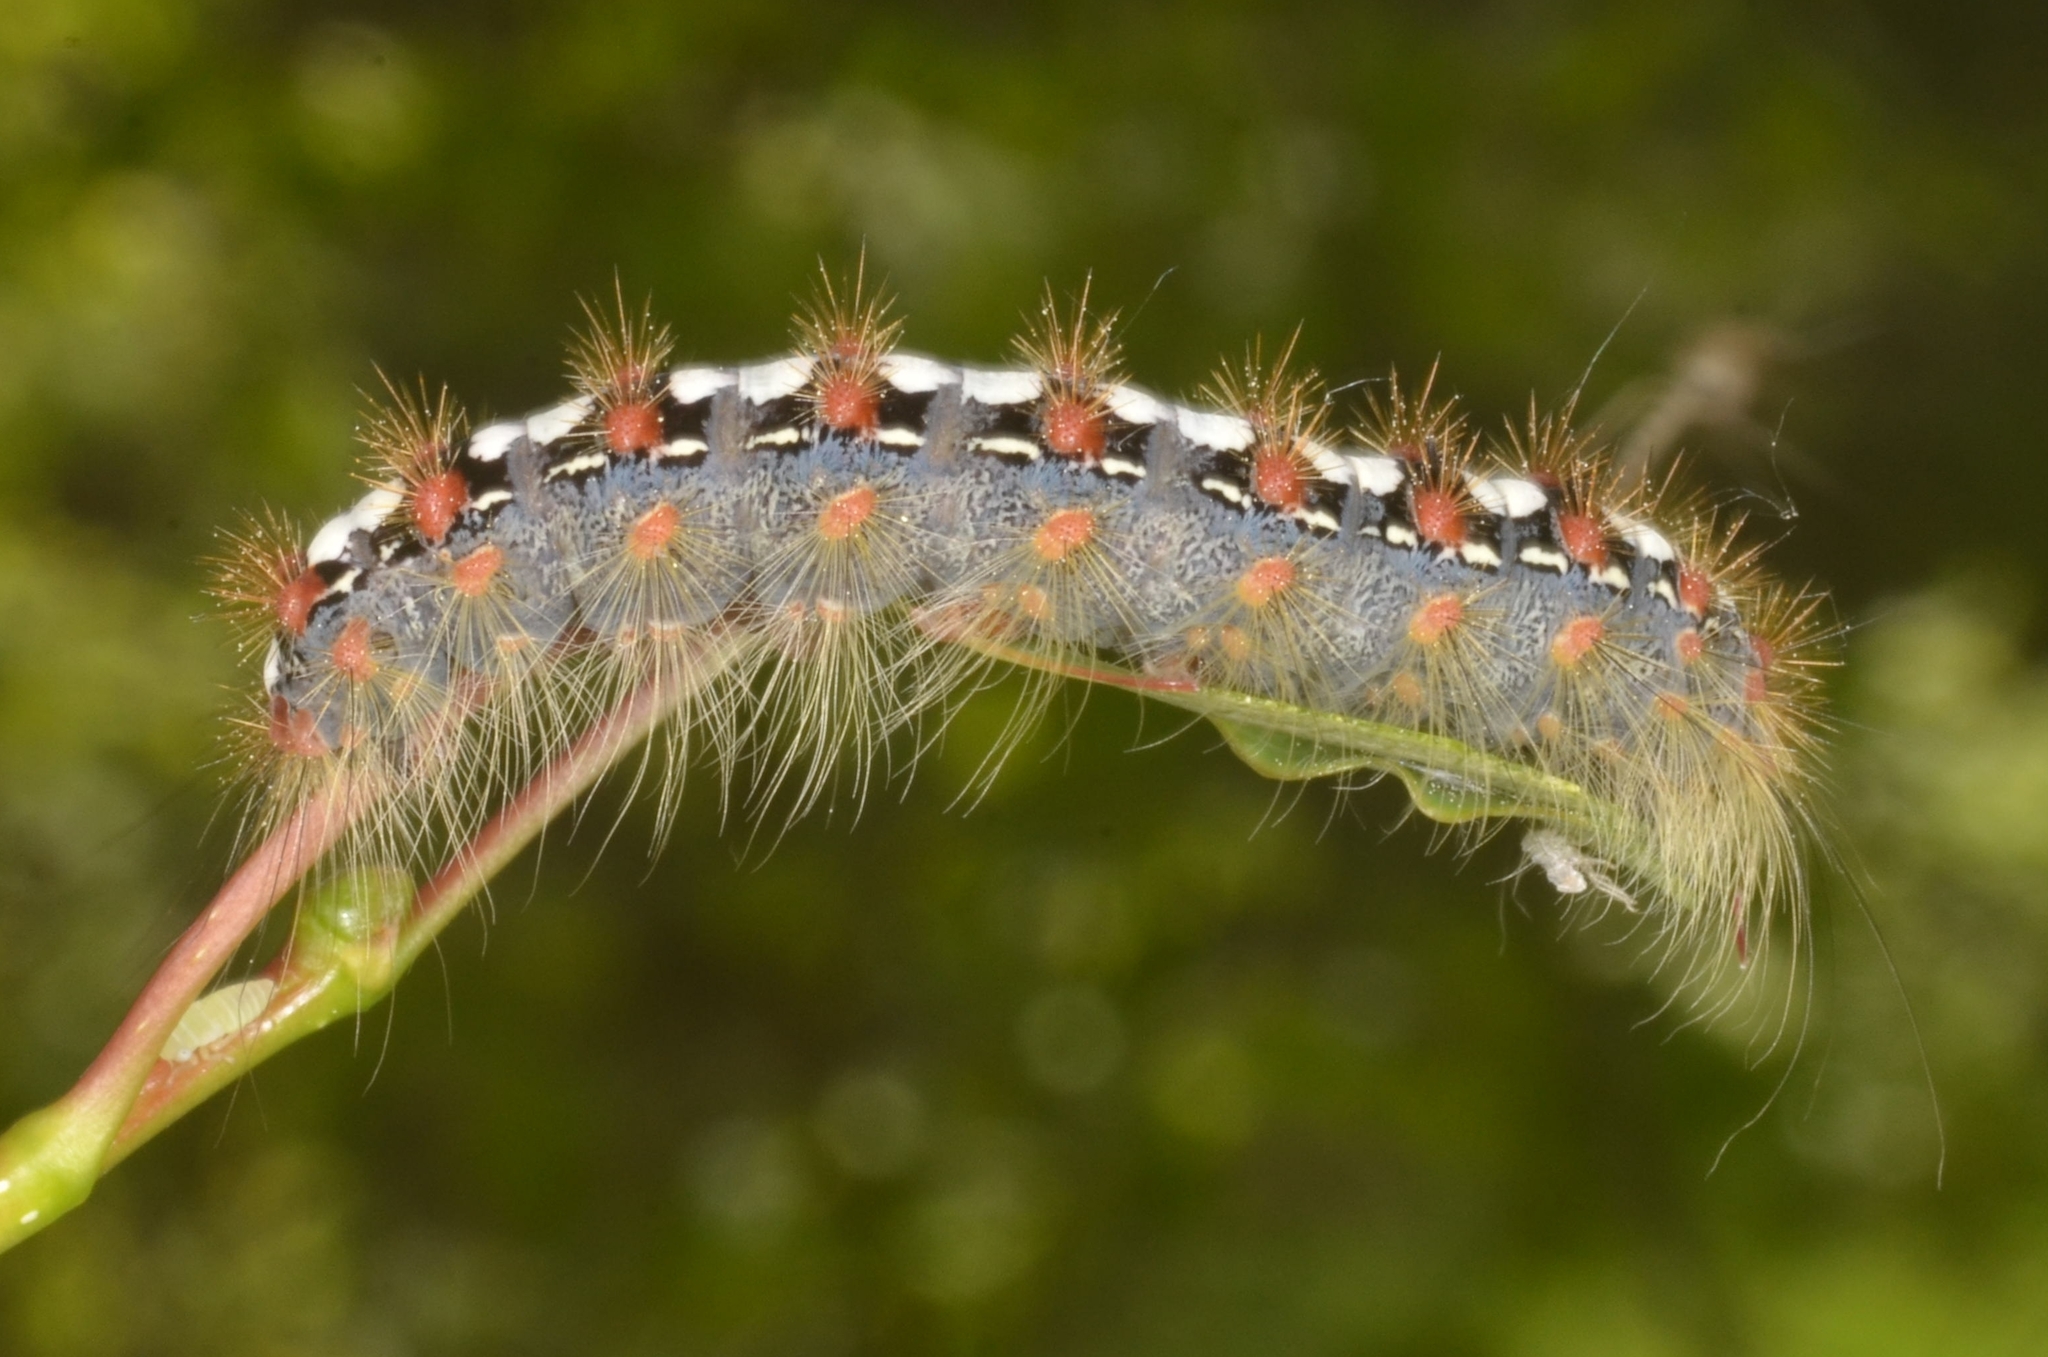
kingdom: Animalia
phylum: Arthropoda
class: Insecta
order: Lepidoptera
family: Erebidae
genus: Leucoma
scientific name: Leucoma salicis
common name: White satin moth
